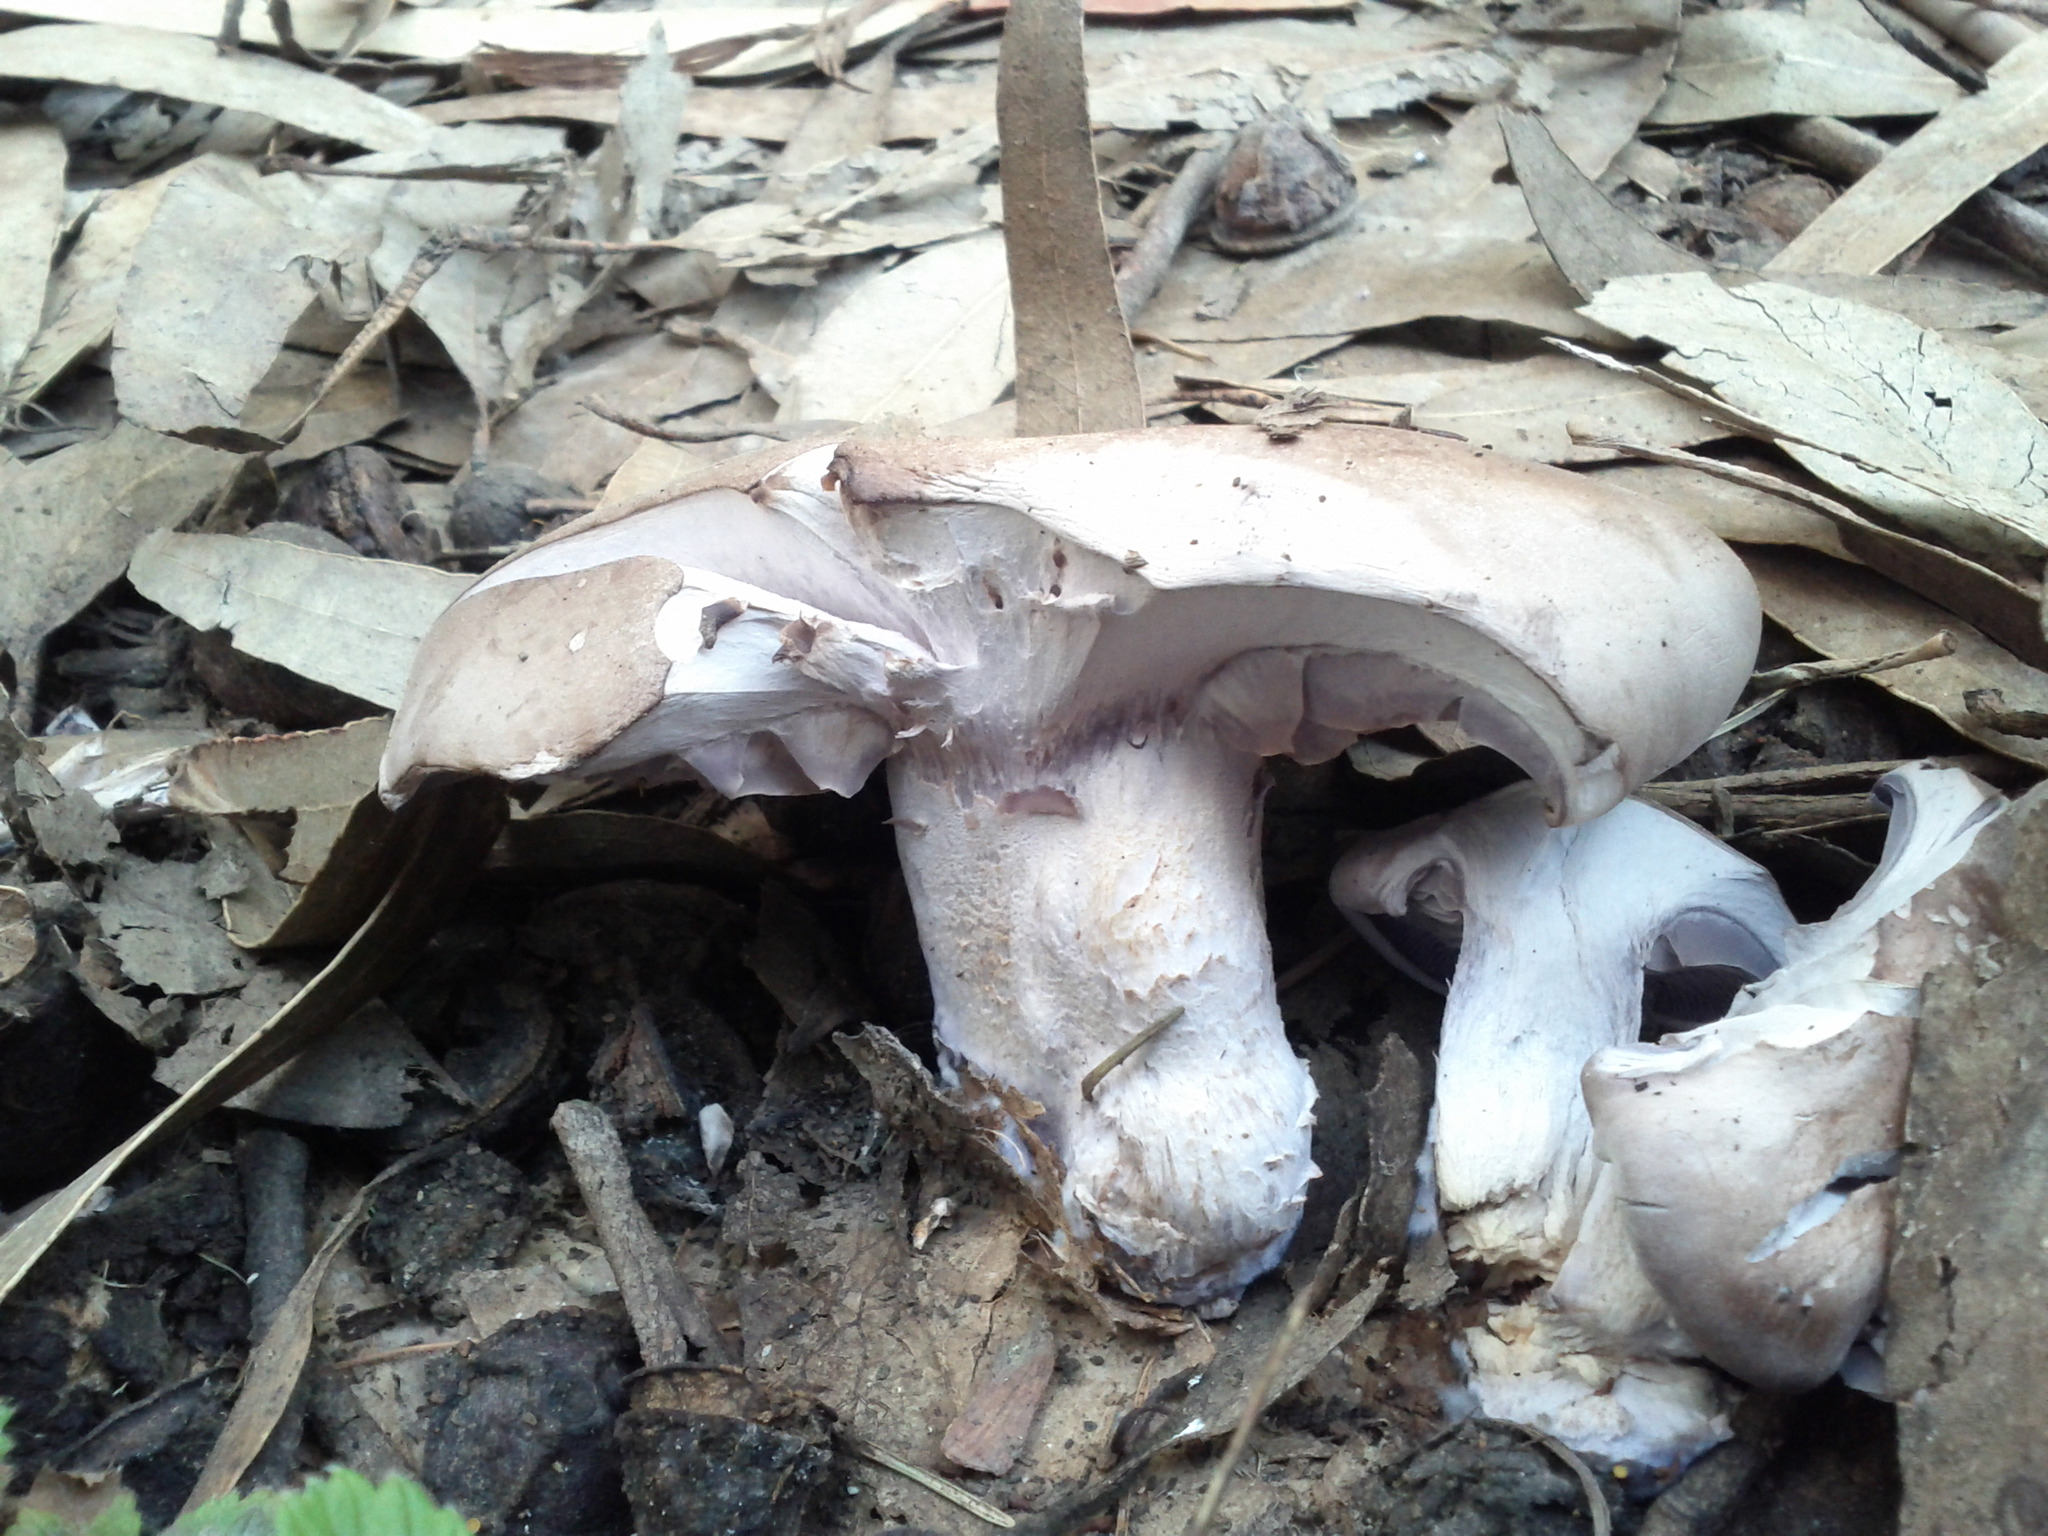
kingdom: Fungi
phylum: Basidiomycota
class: Agaricomycetes
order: Agaricales
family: Tricholomataceae
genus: Collybia
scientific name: Collybia
